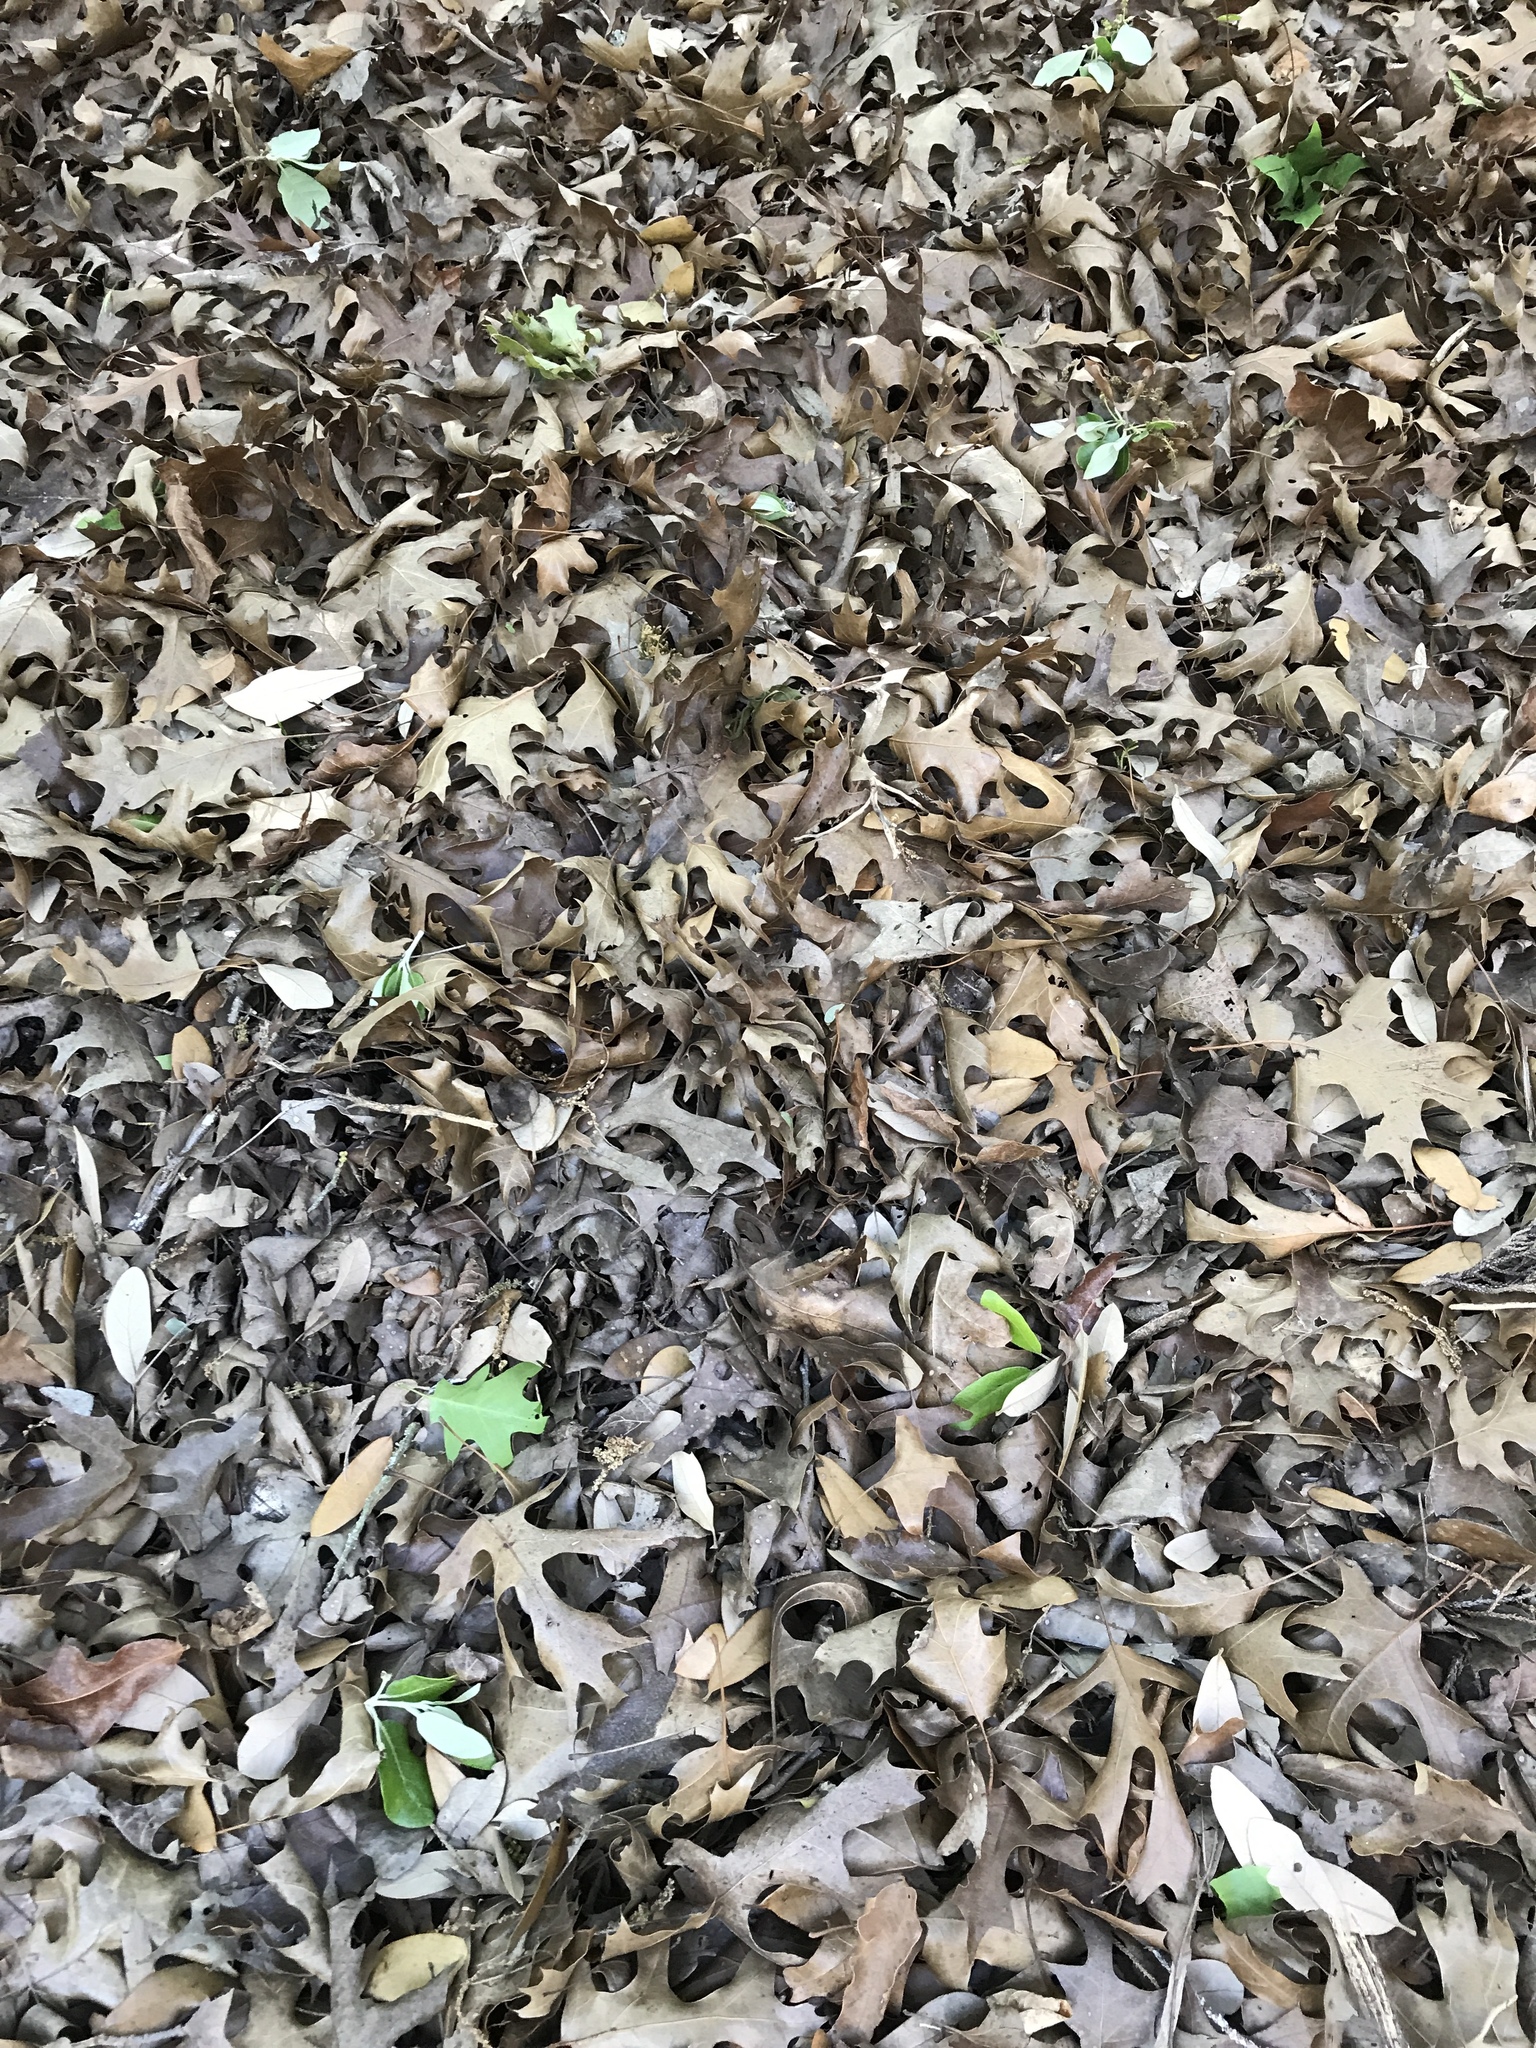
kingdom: Plantae
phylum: Tracheophyta
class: Magnoliopsida
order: Fagales
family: Fagaceae
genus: Quercus
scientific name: Quercus buckleyi
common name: Buckley oak
